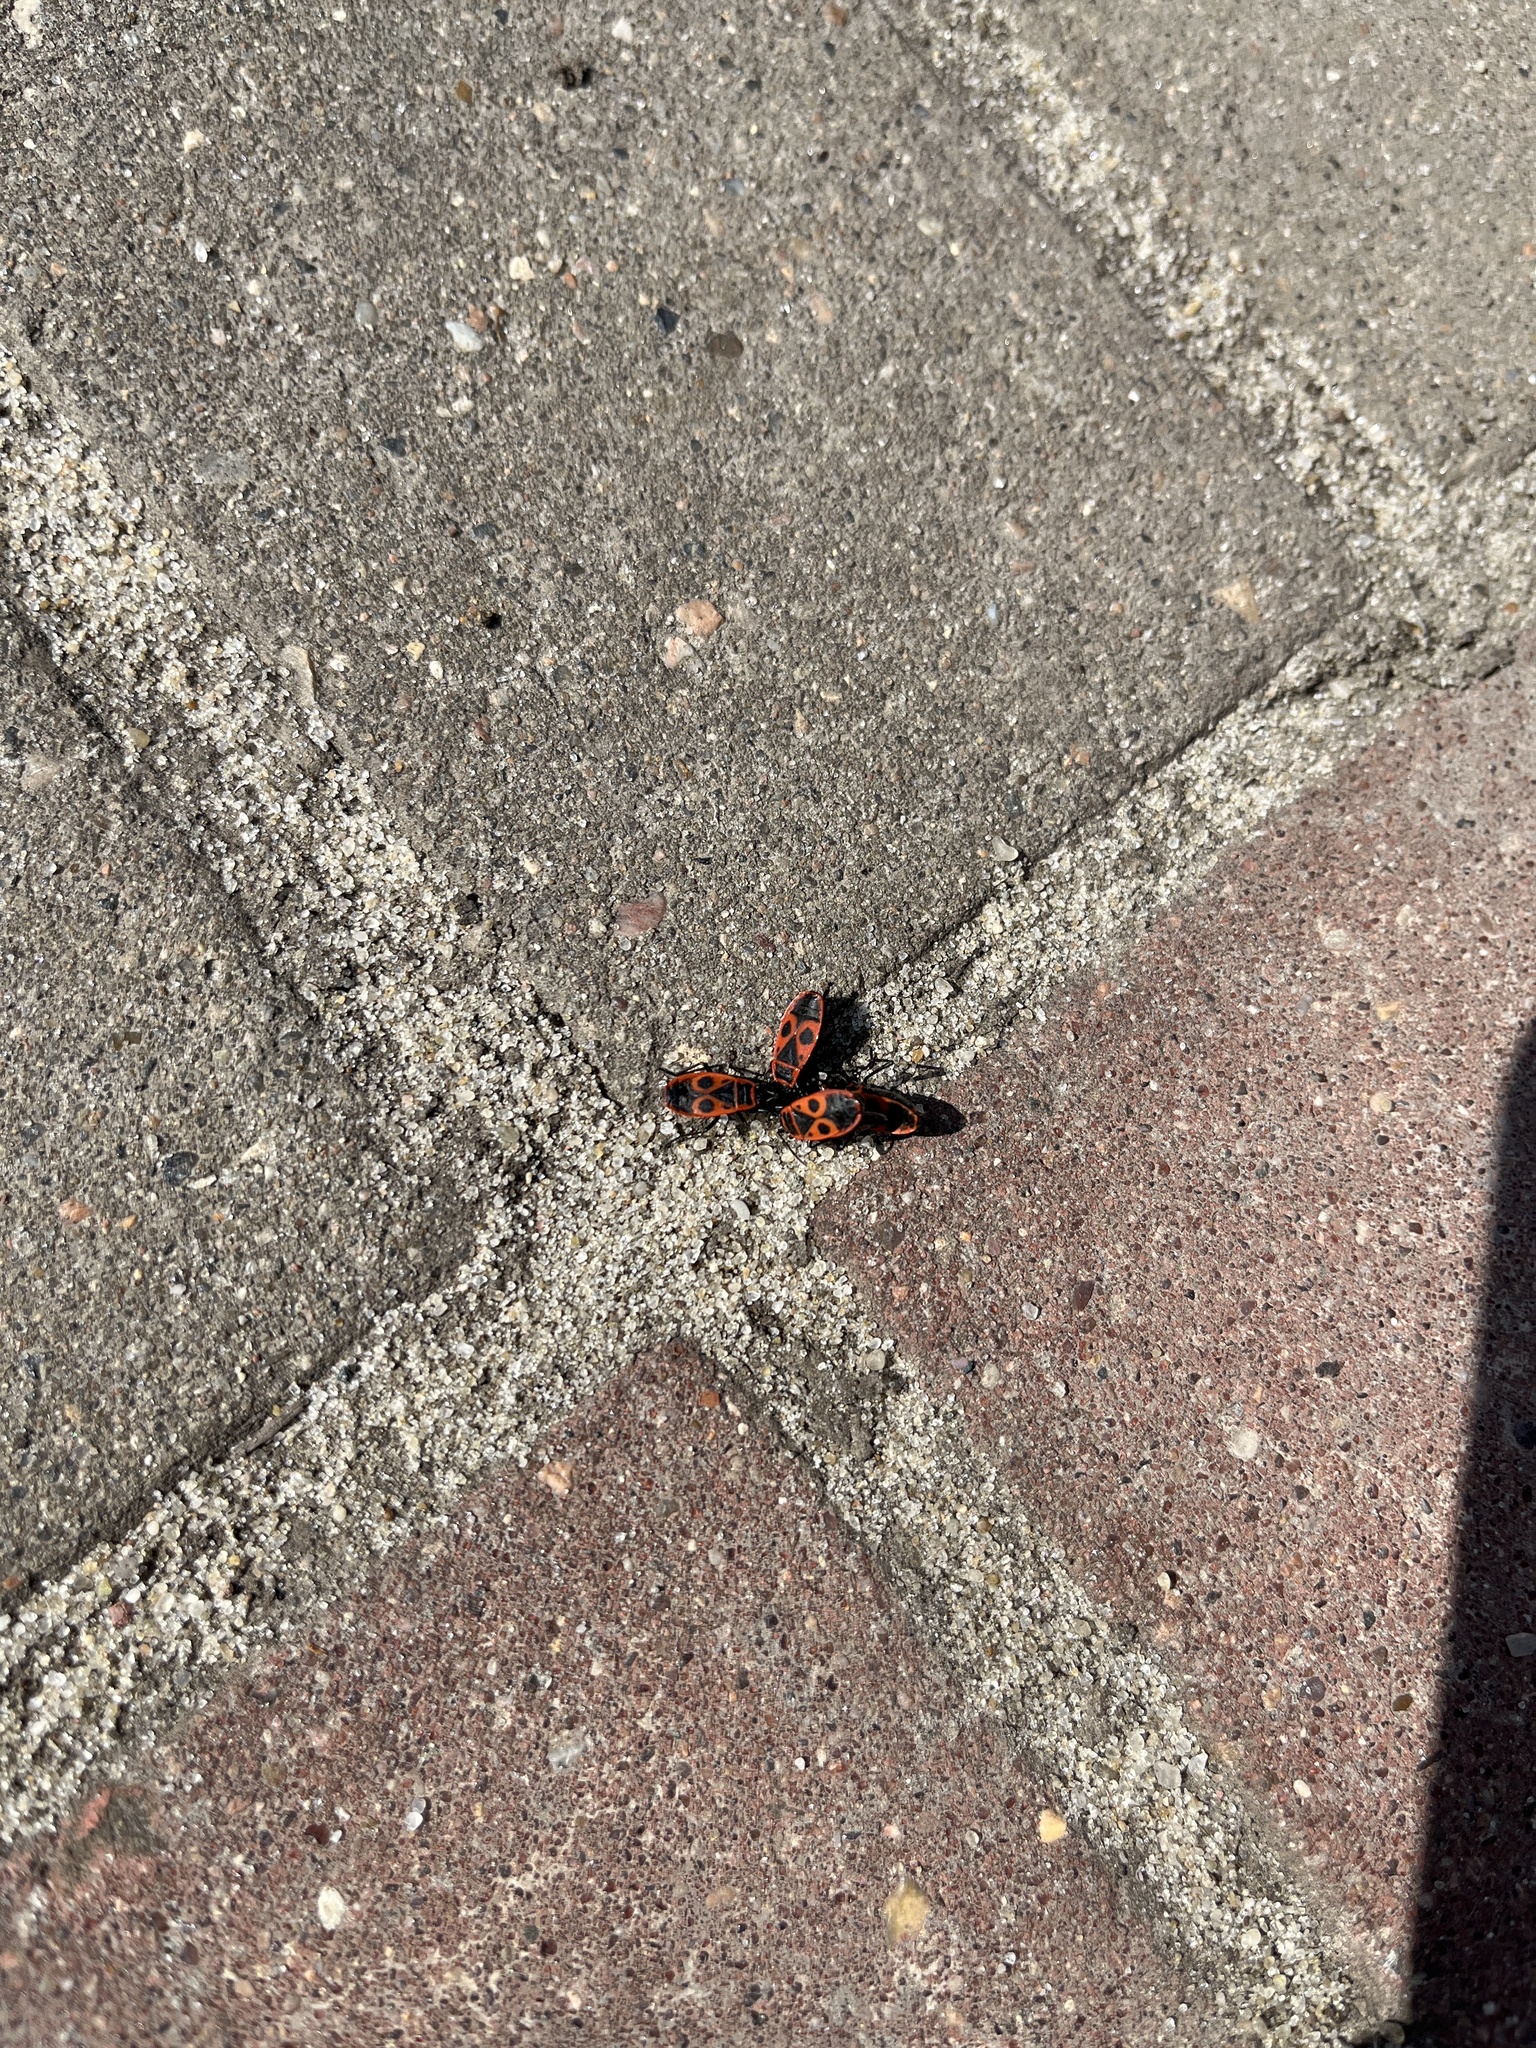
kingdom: Animalia
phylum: Arthropoda
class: Insecta
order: Hemiptera
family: Pyrrhocoridae
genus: Pyrrhocoris
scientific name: Pyrrhocoris apterus
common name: Firebug
